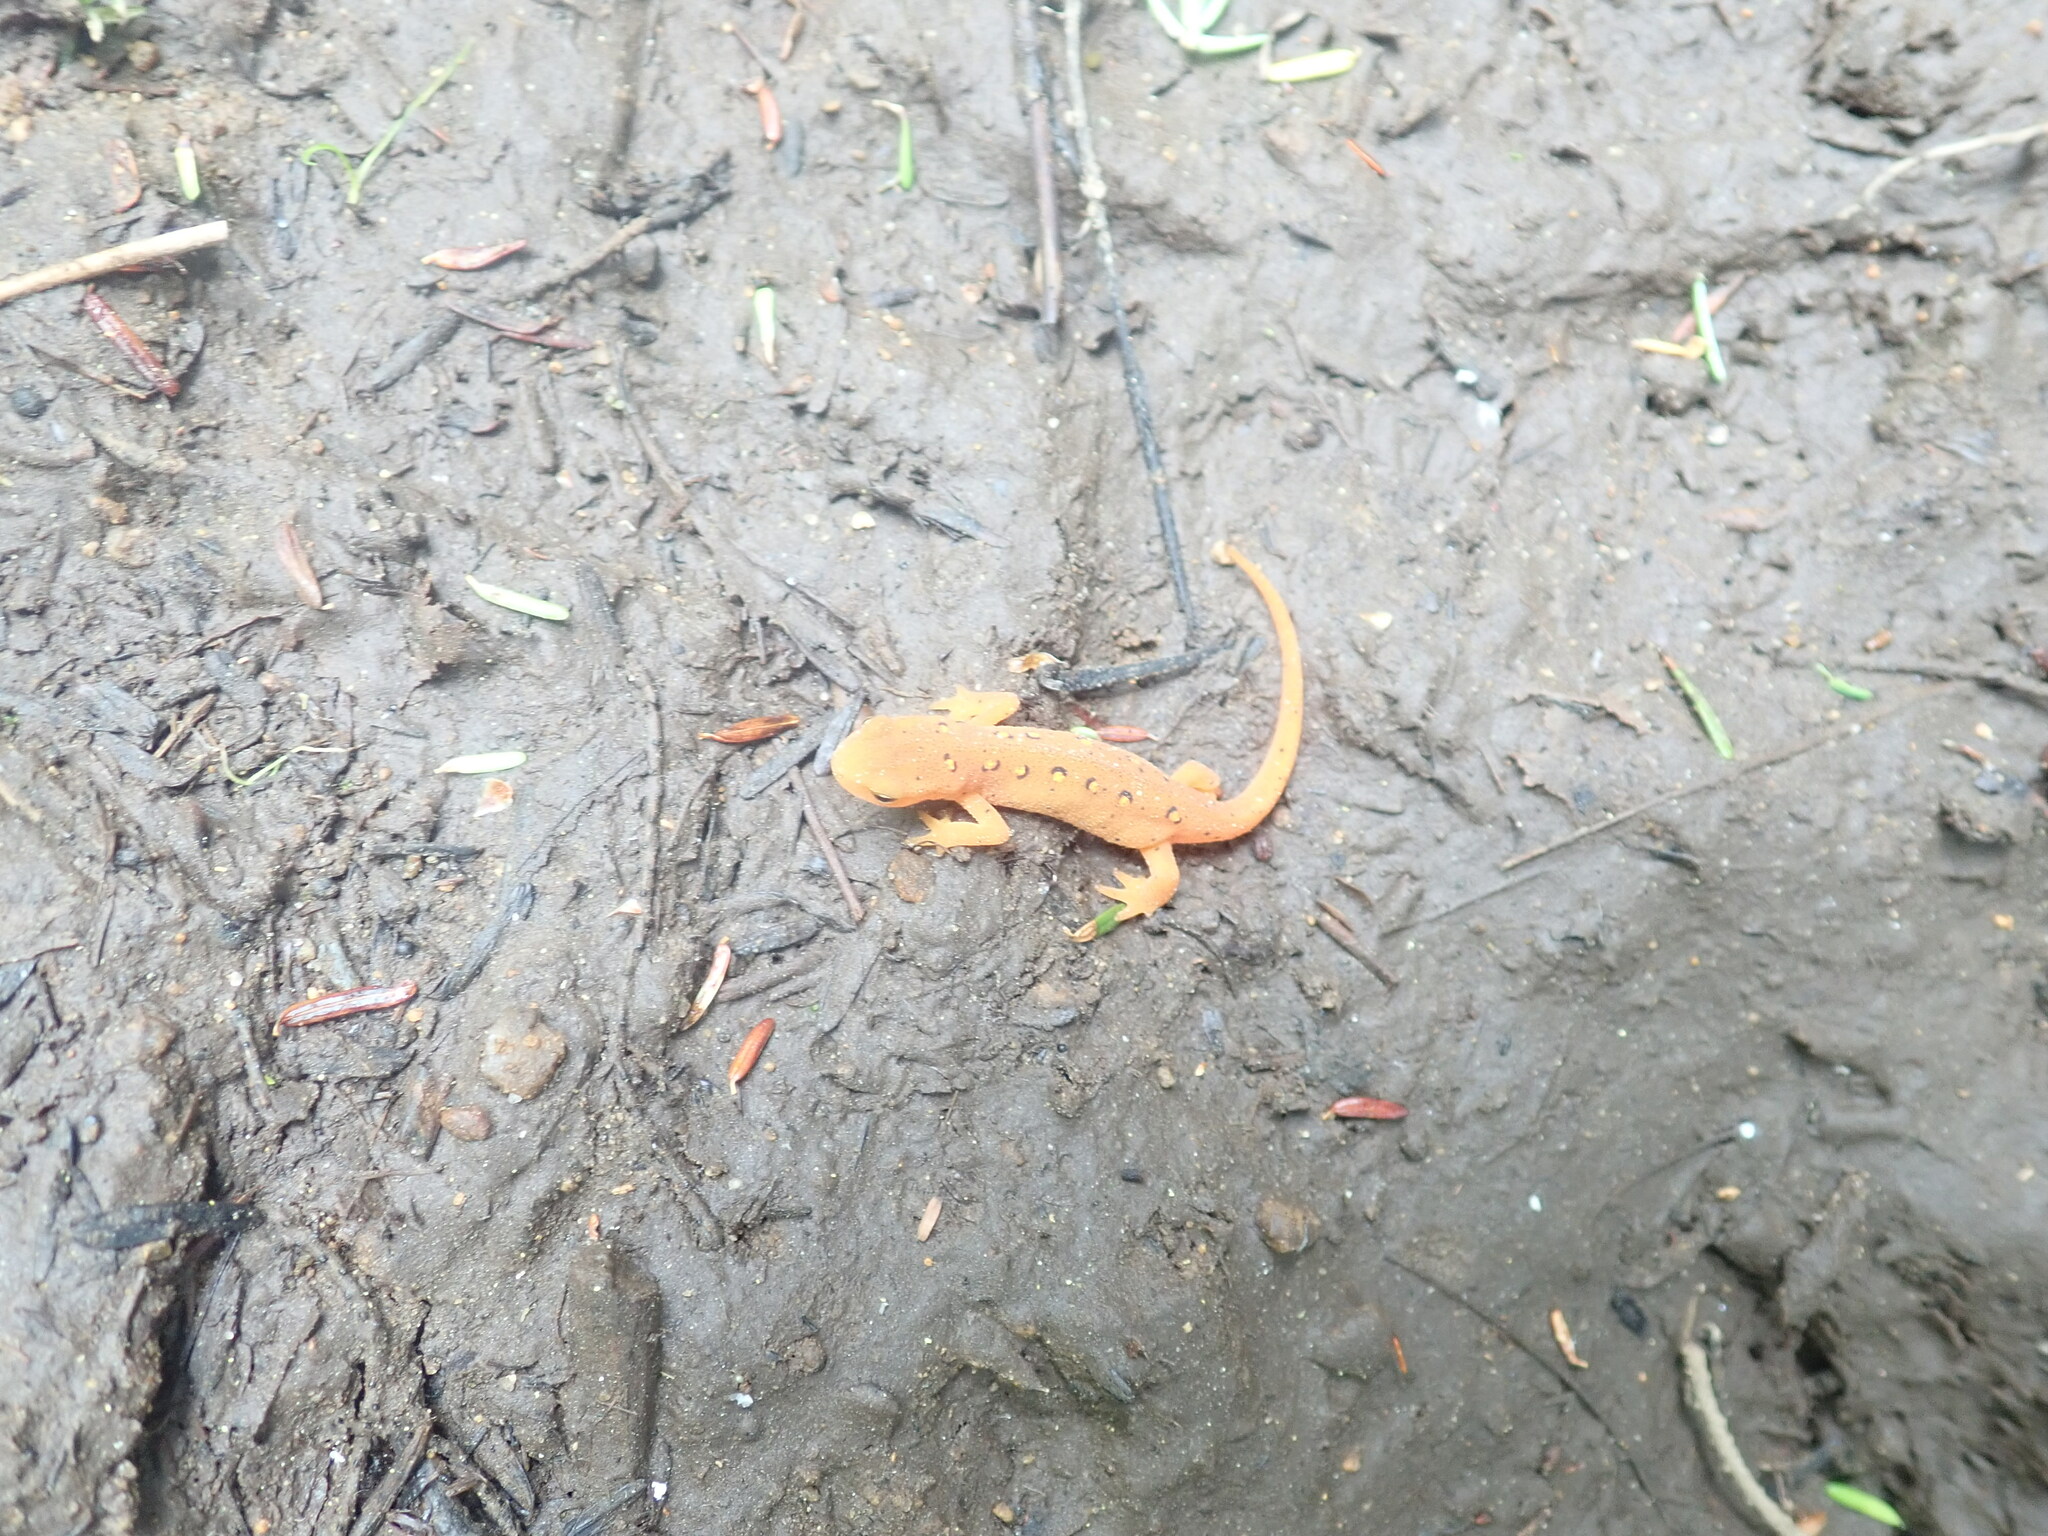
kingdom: Animalia
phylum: Chordata
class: Amphibia
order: Caudata
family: Salamandridae
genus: Notophthalmus
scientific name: Notophthalmus viridescens
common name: Eastern newt
